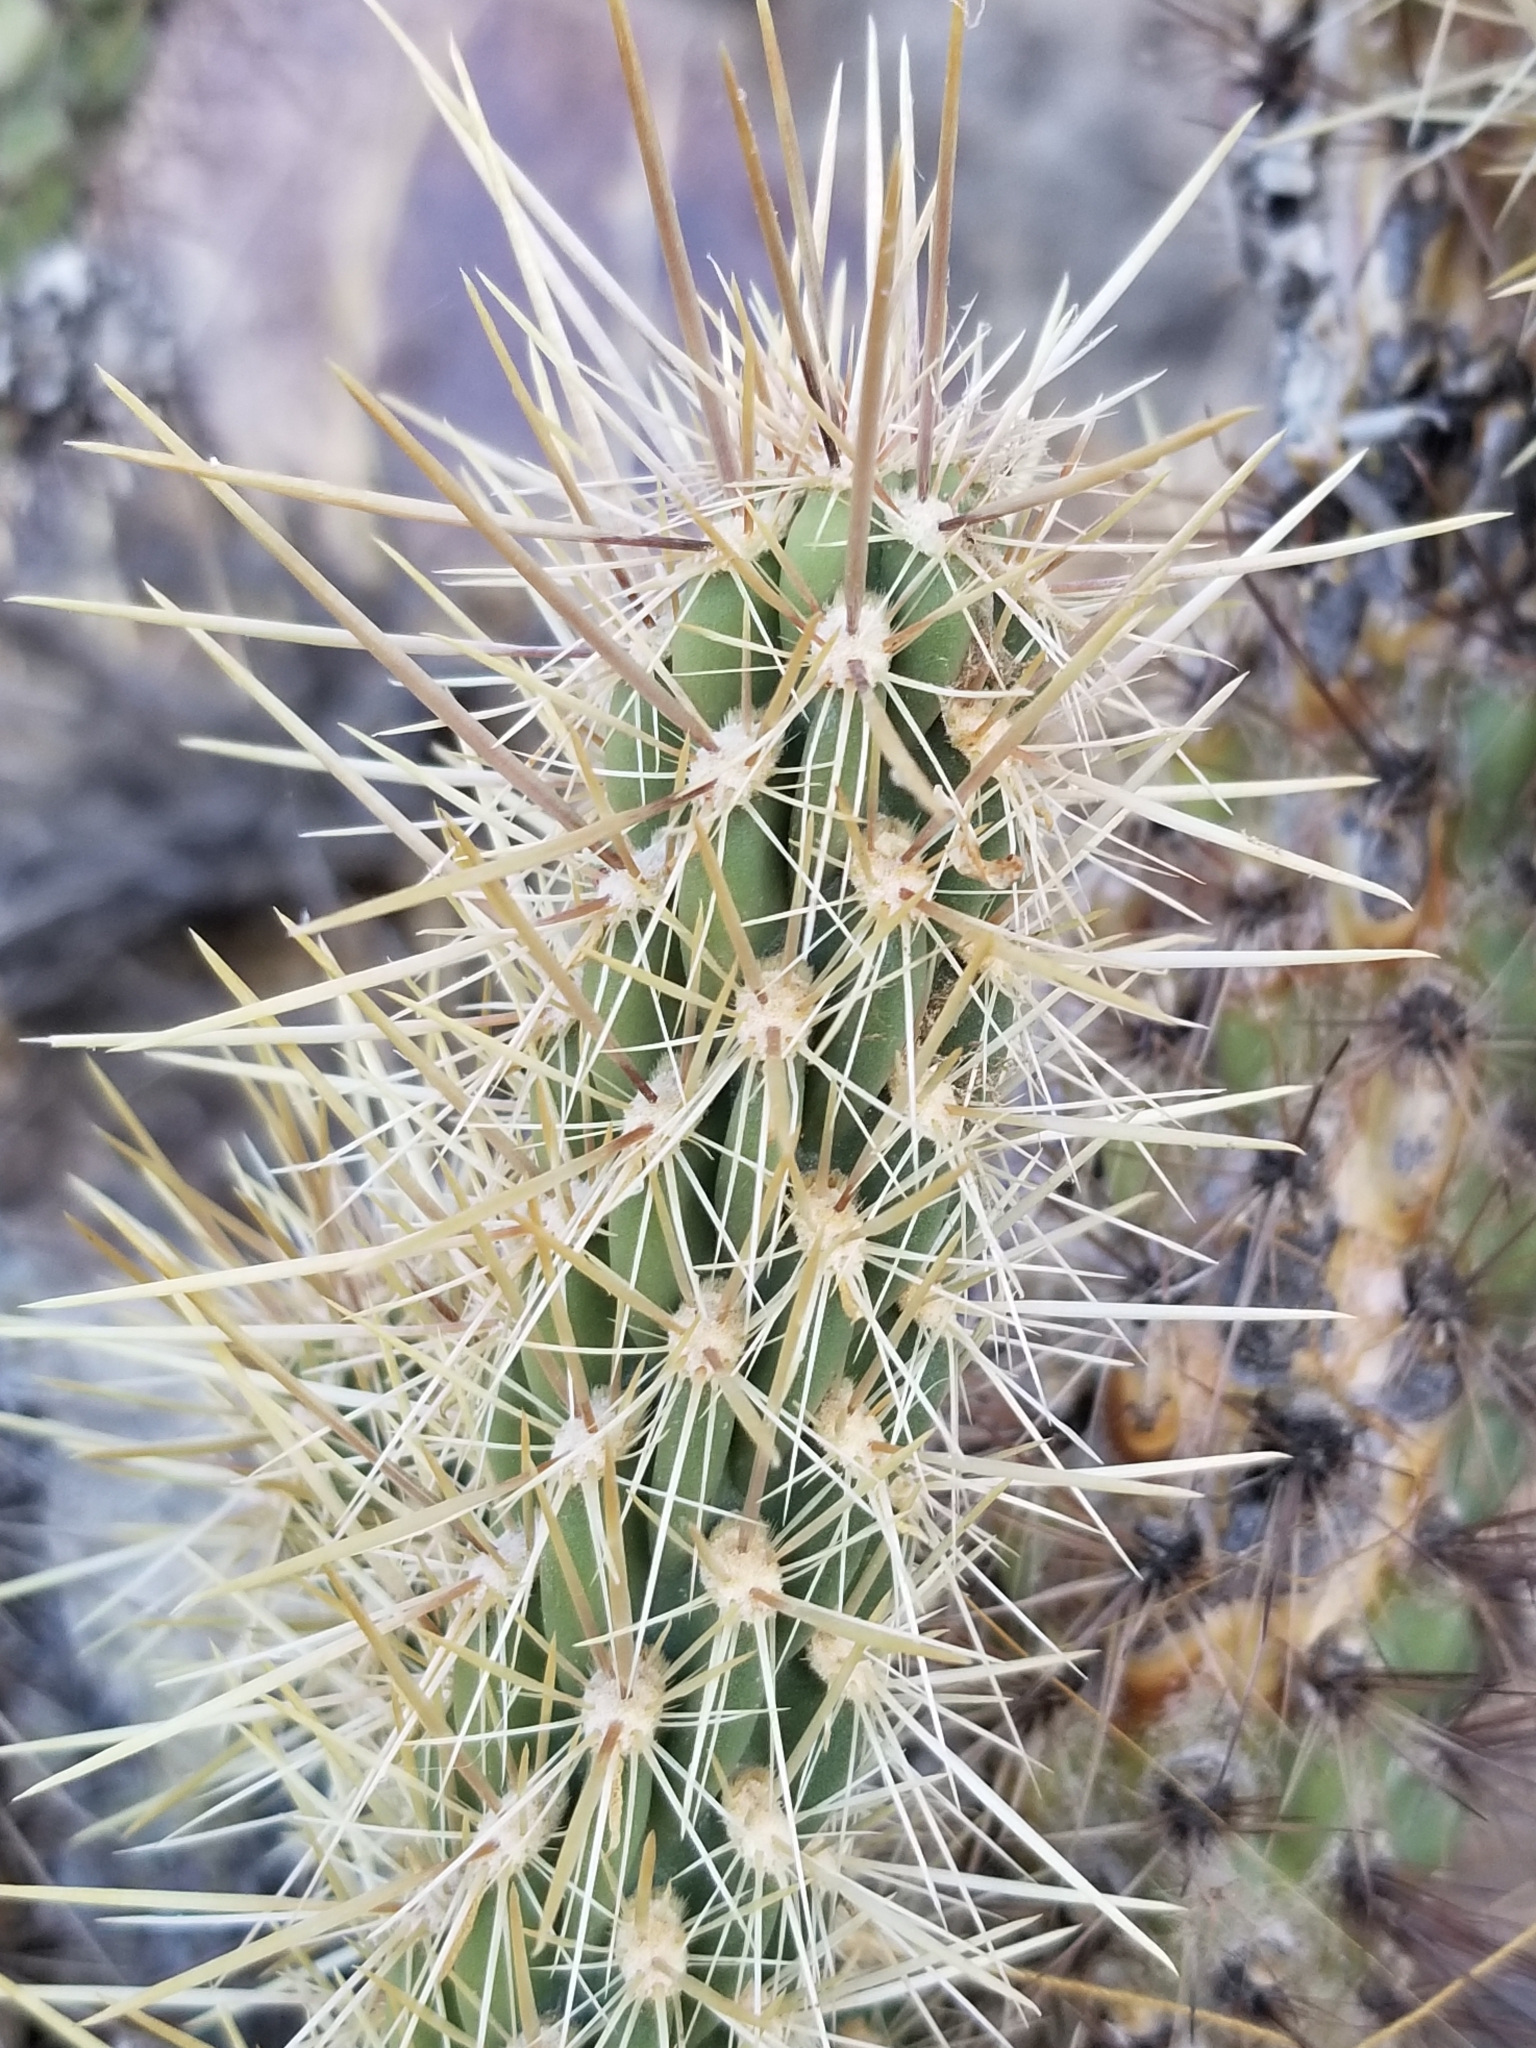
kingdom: Plantae
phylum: Tracheophyta
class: Magnoliopsida
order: Caryophyllales
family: Cactaceae
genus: Cylindropuntia
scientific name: Cylindropuntia ganderi
